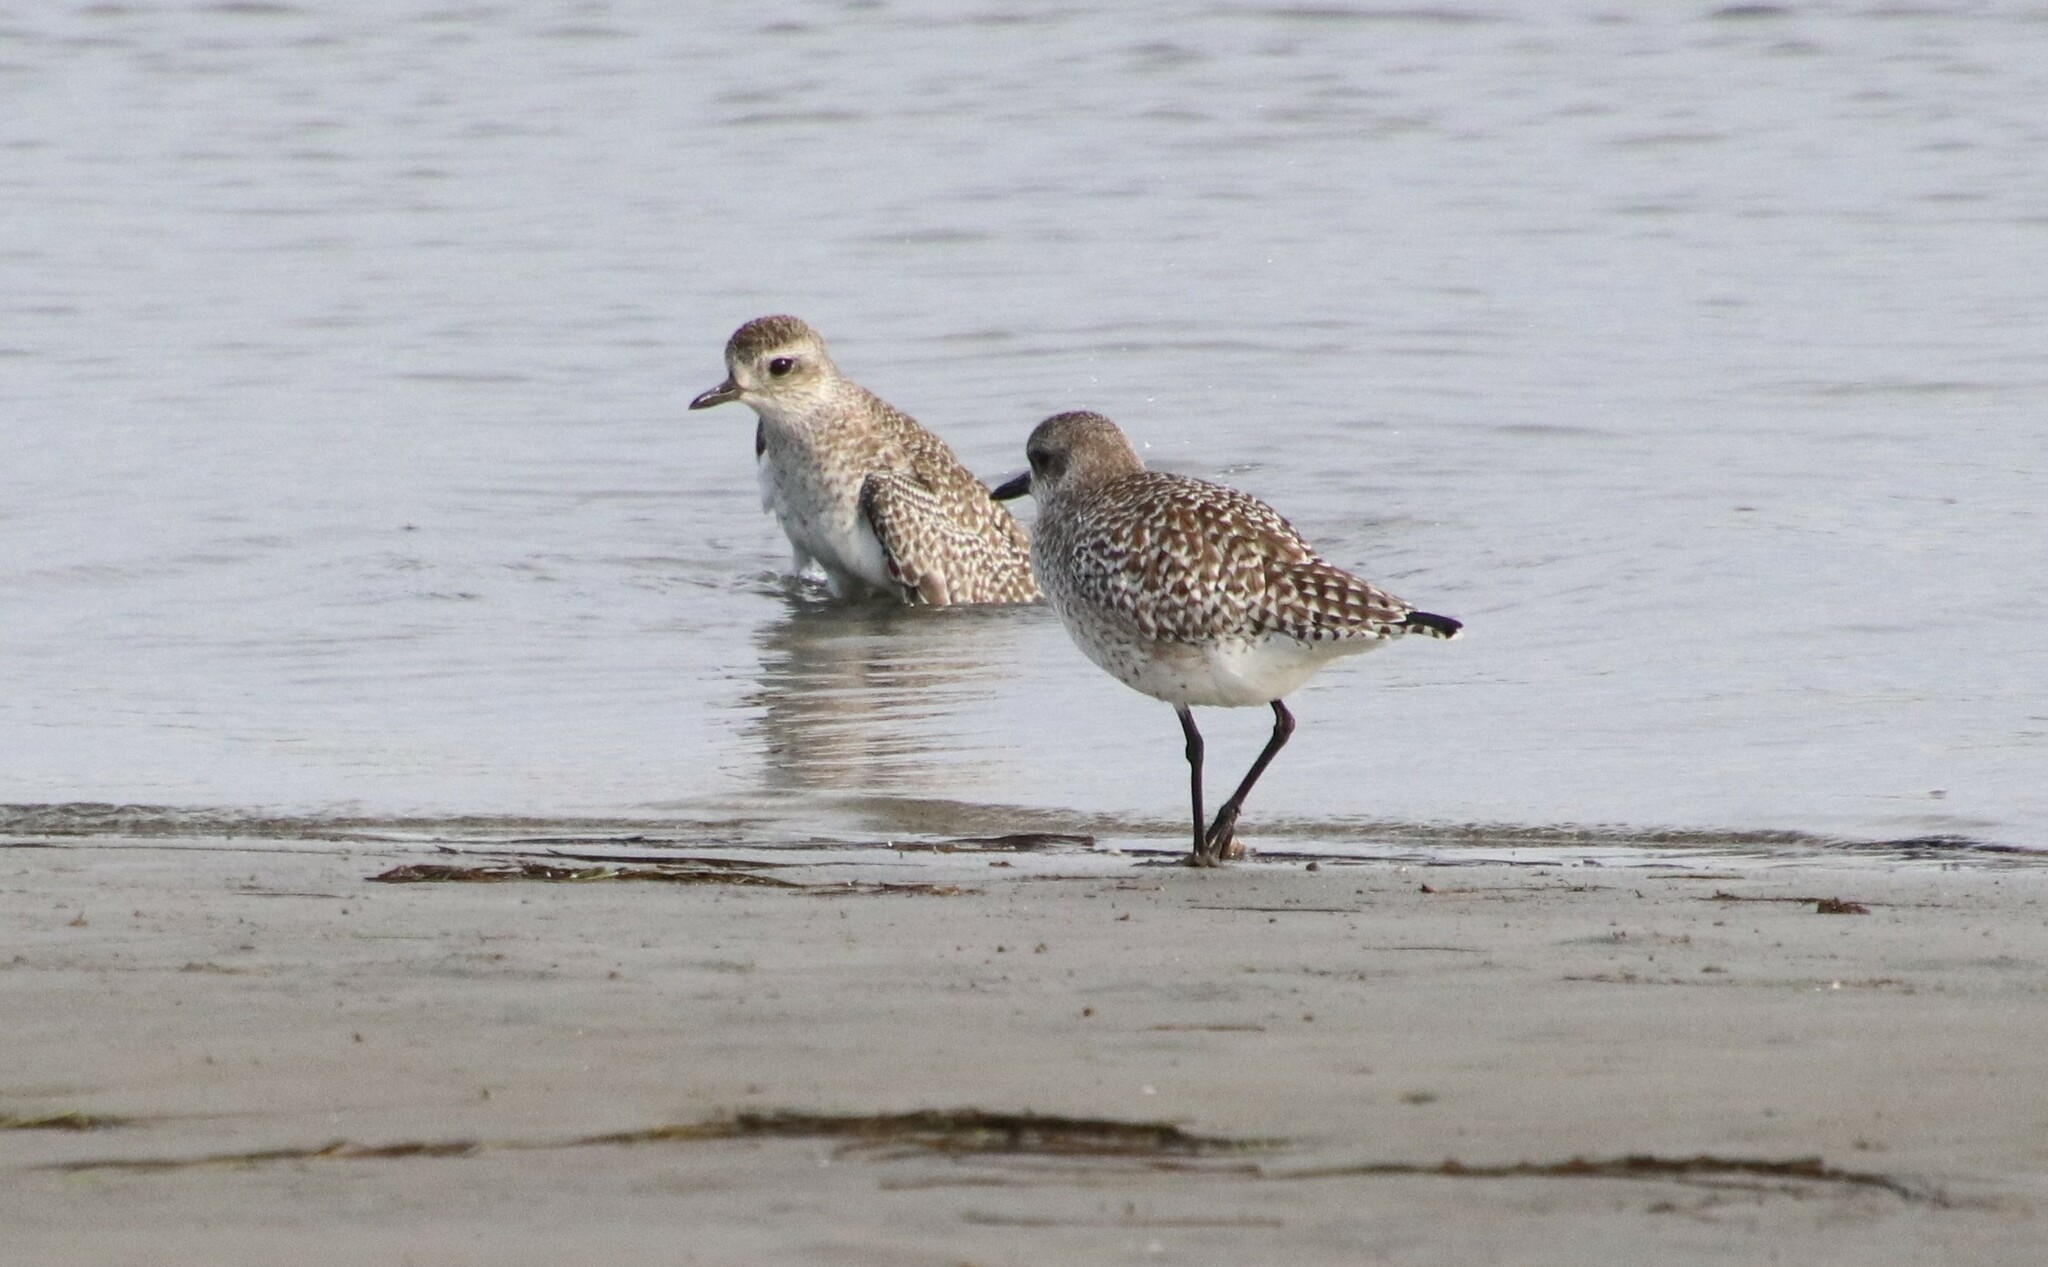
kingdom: Animalia
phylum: Chordata
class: Aves
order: Charadriiformes
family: Charadriidae
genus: Pluvialis
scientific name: Pluvialis squatarola
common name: Grey plover
